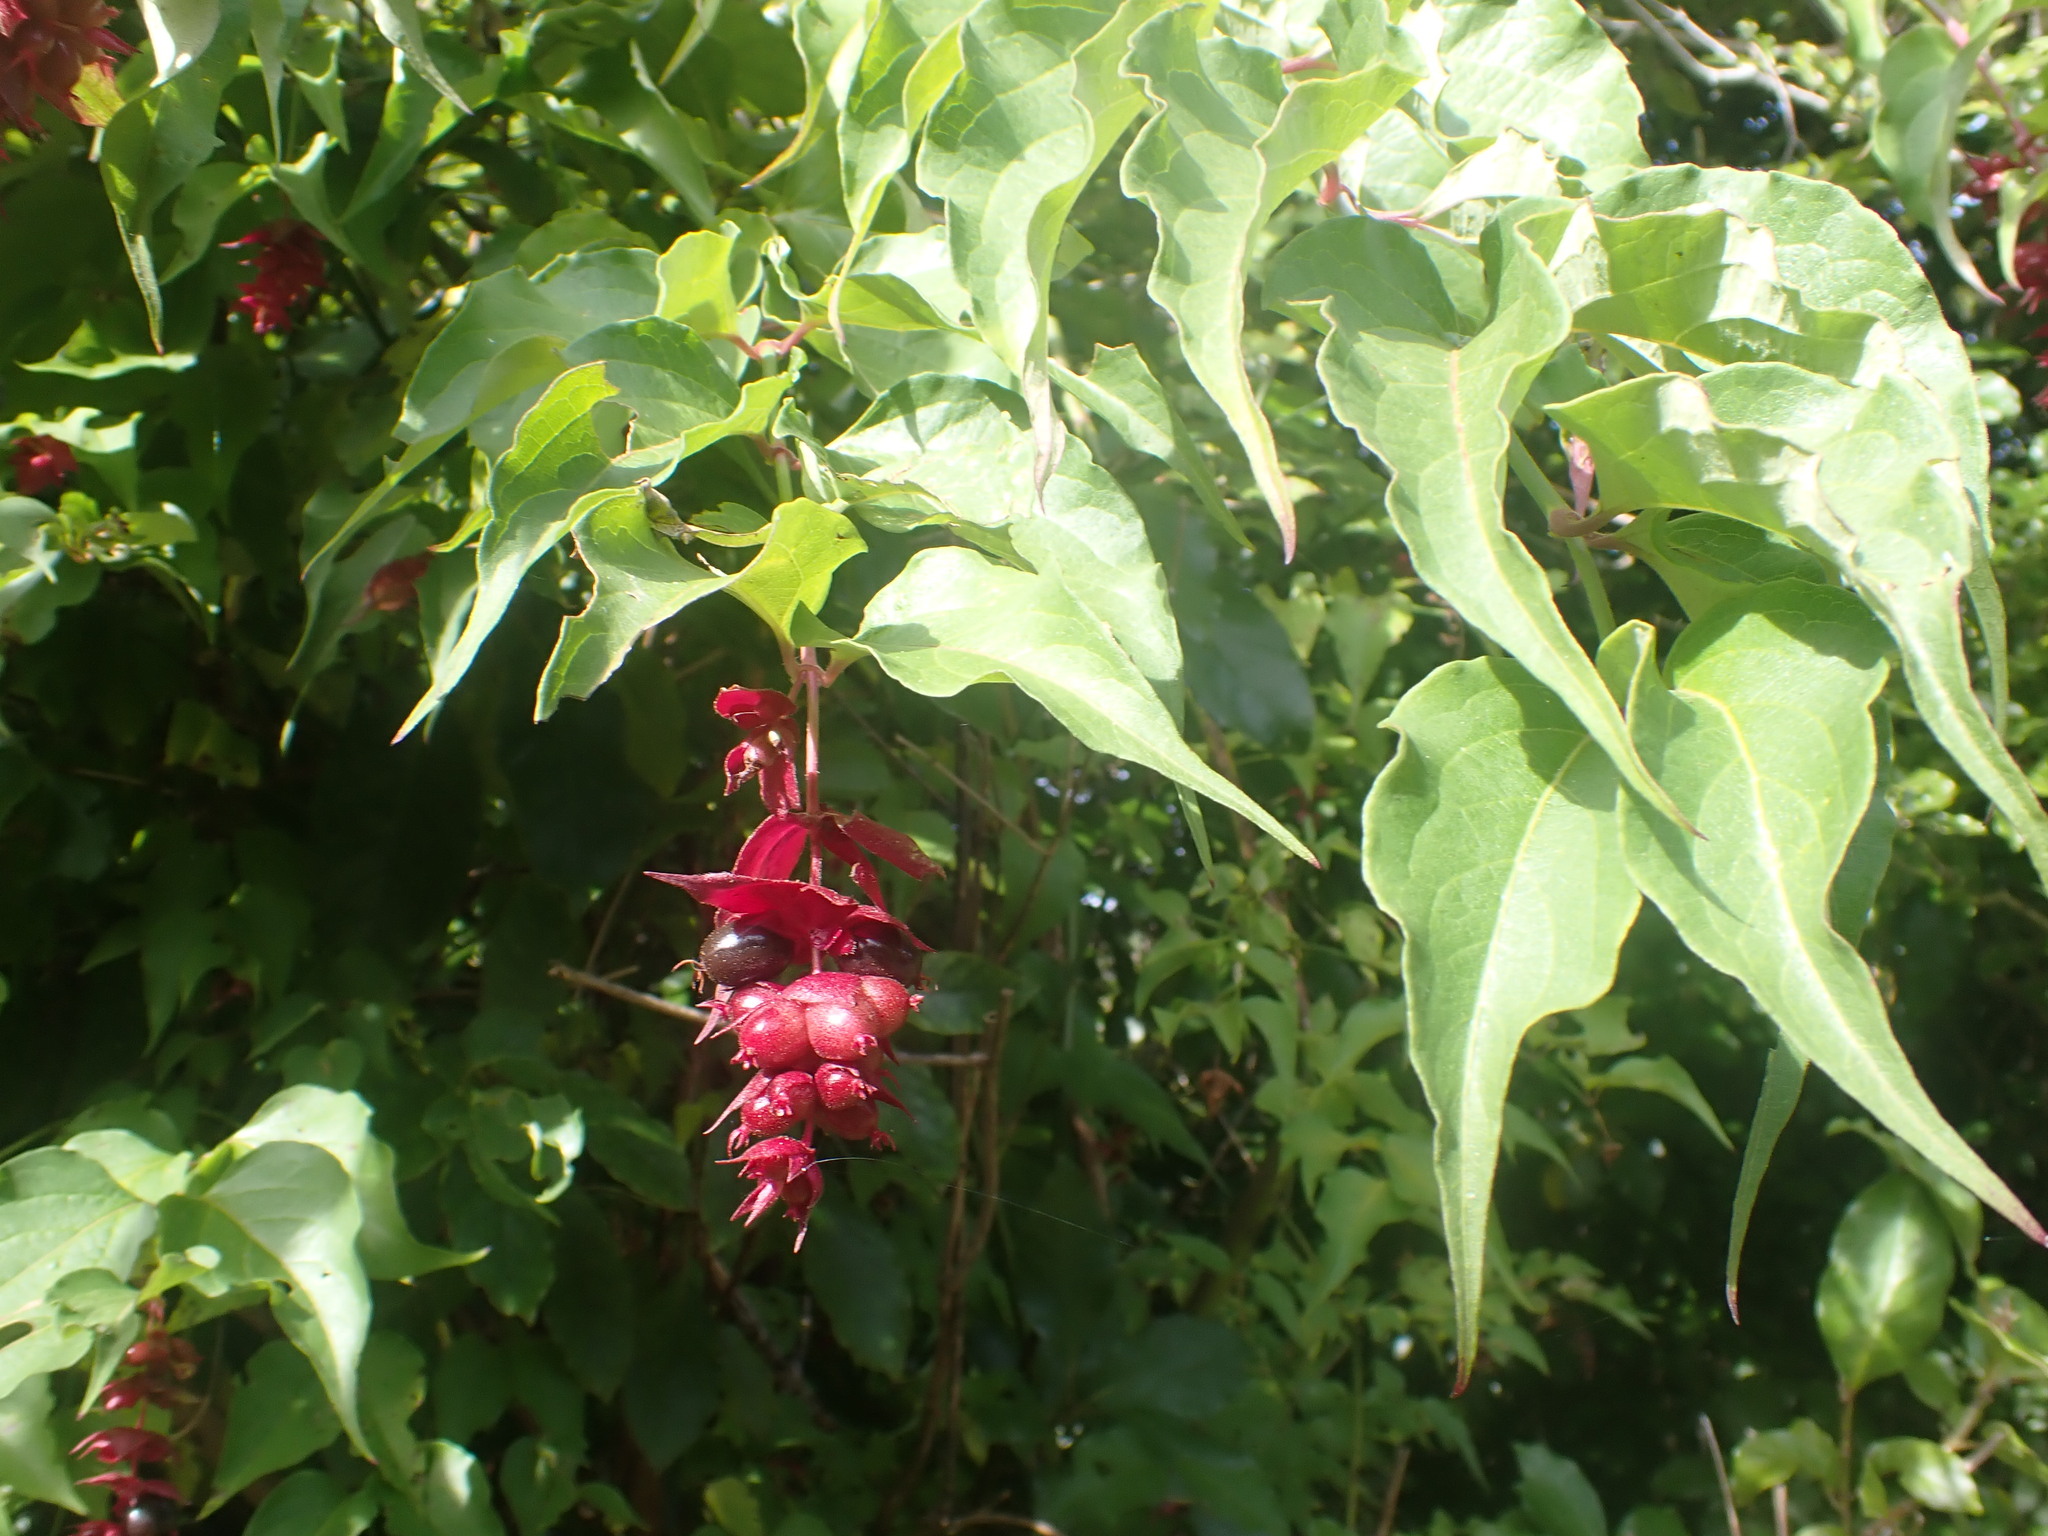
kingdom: Plantae
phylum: Tracheophyta
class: Magnoliopsida
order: Dipsacales
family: Caprifoliaceae
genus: Leycesteria
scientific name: Leycesteria formosa
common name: Himalayan honeysuckle
